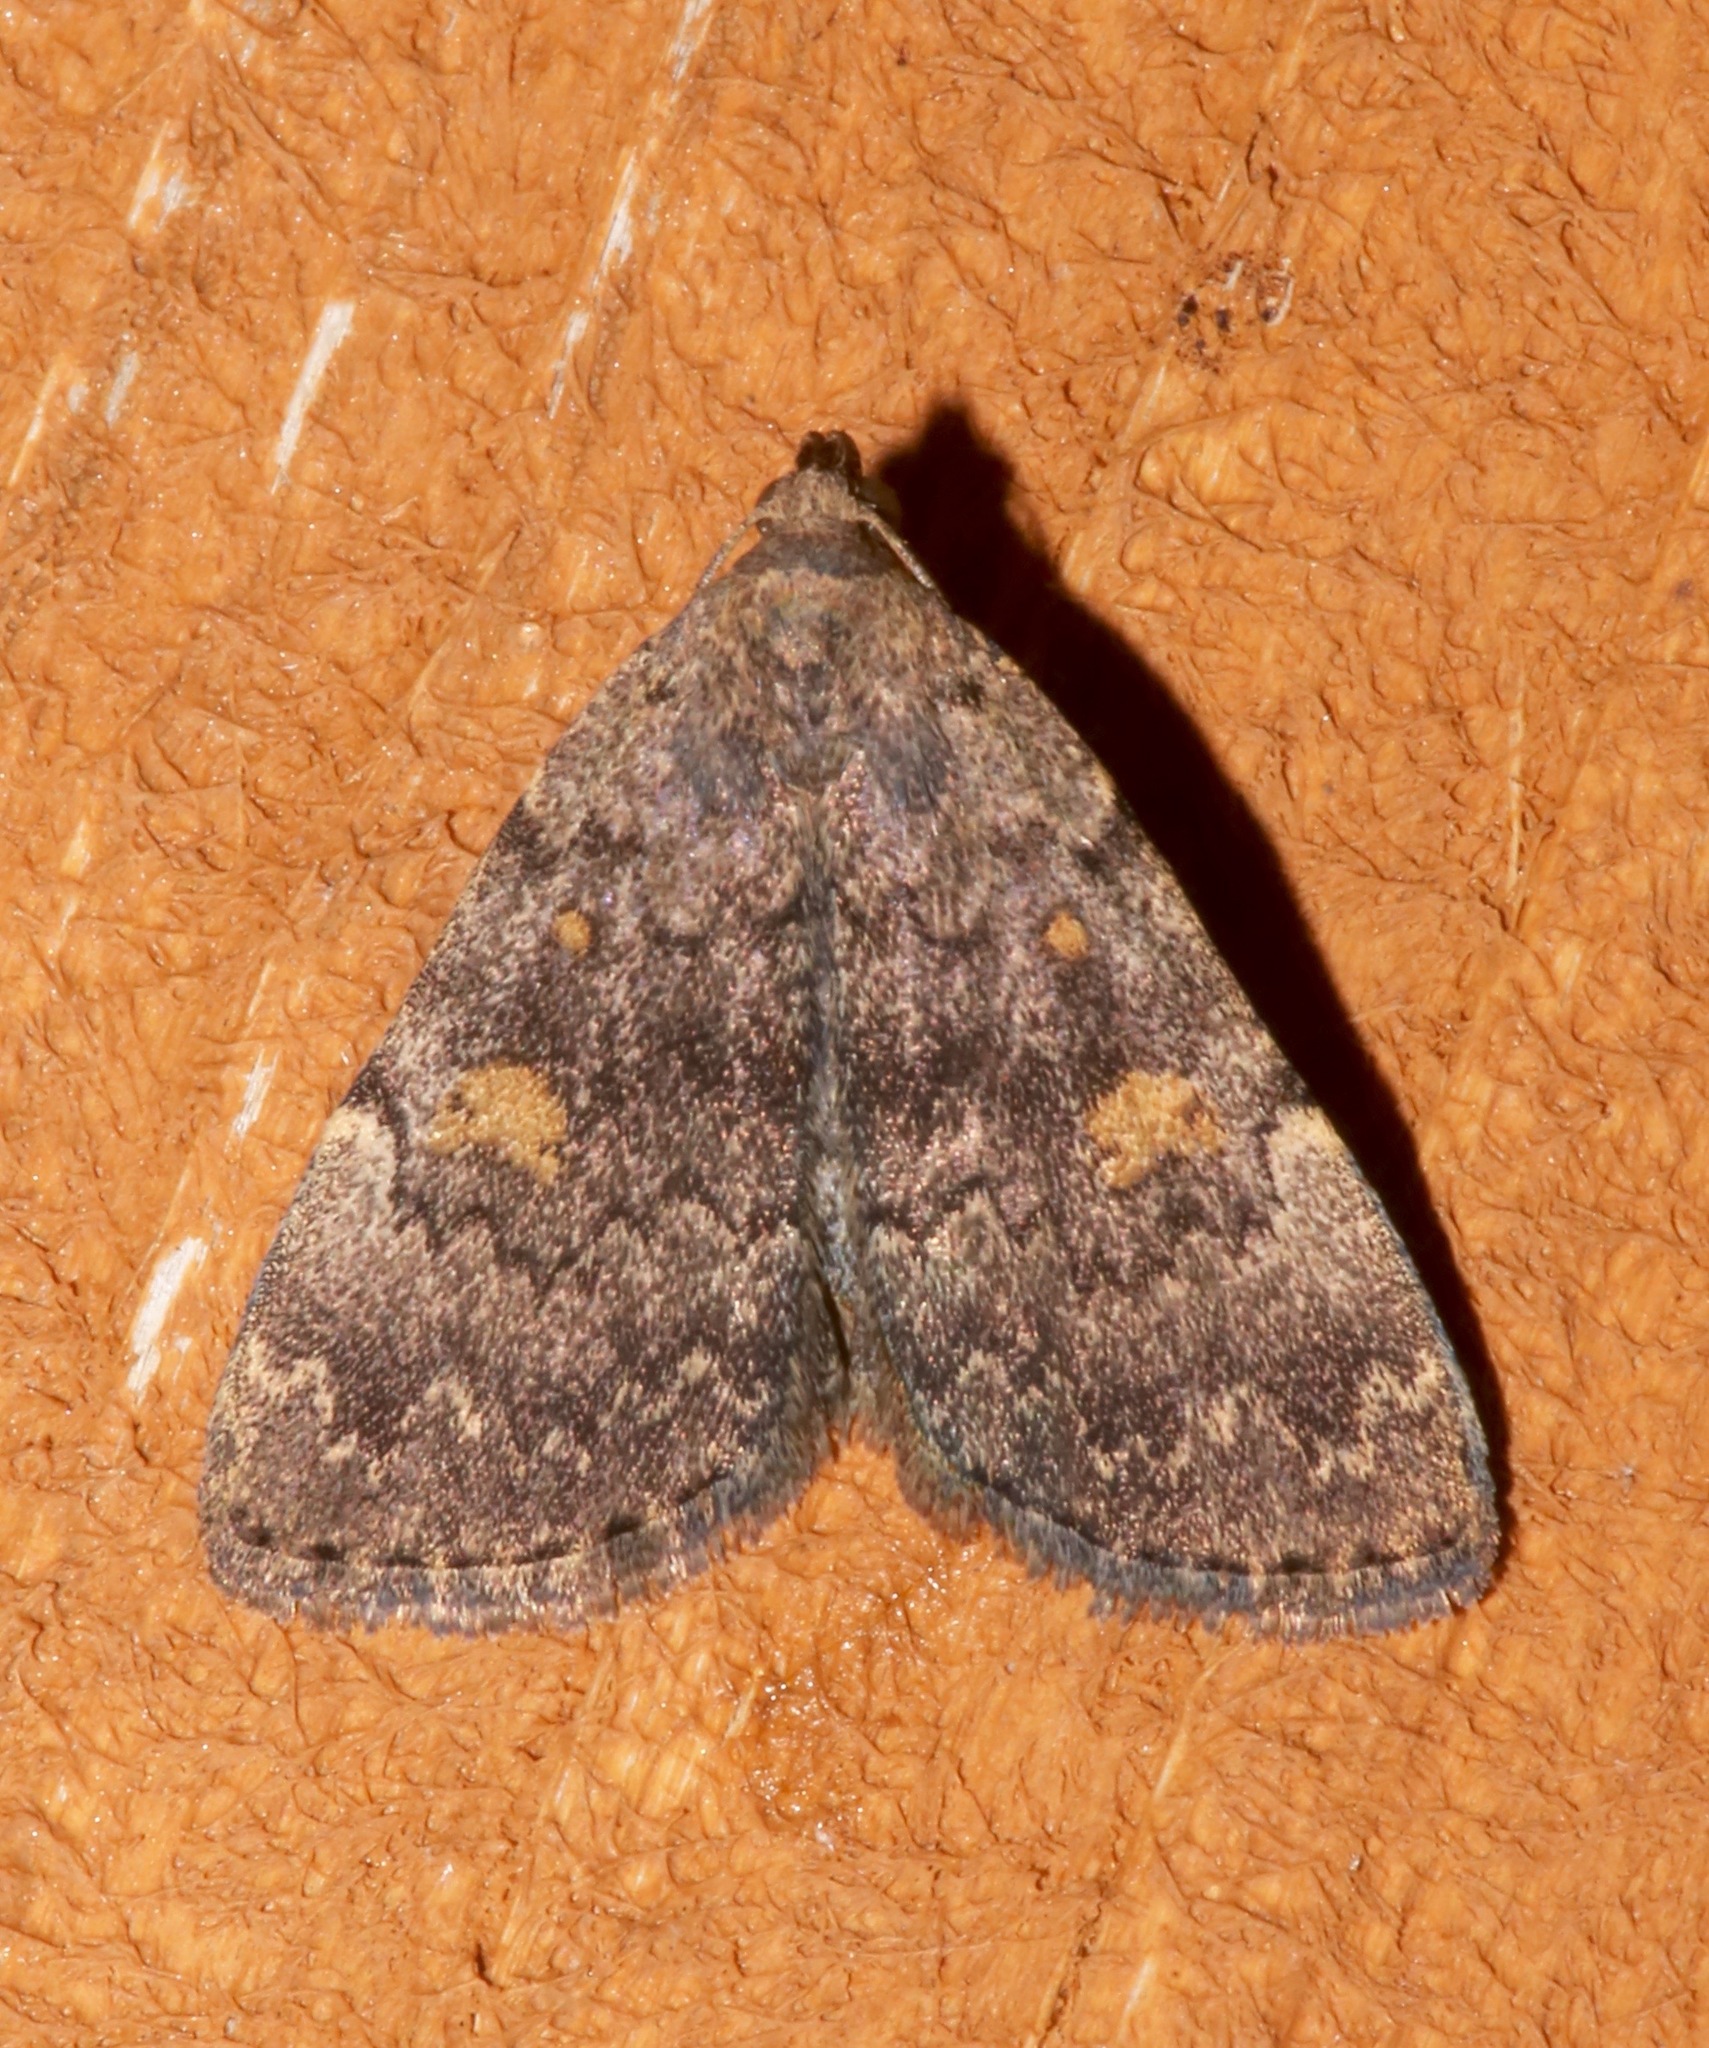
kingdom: Animalia
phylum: Arthropoda
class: Insecta
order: Lepidoptera
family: Erebidae
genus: Idia
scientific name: Idia aemula
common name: Common idia moth
